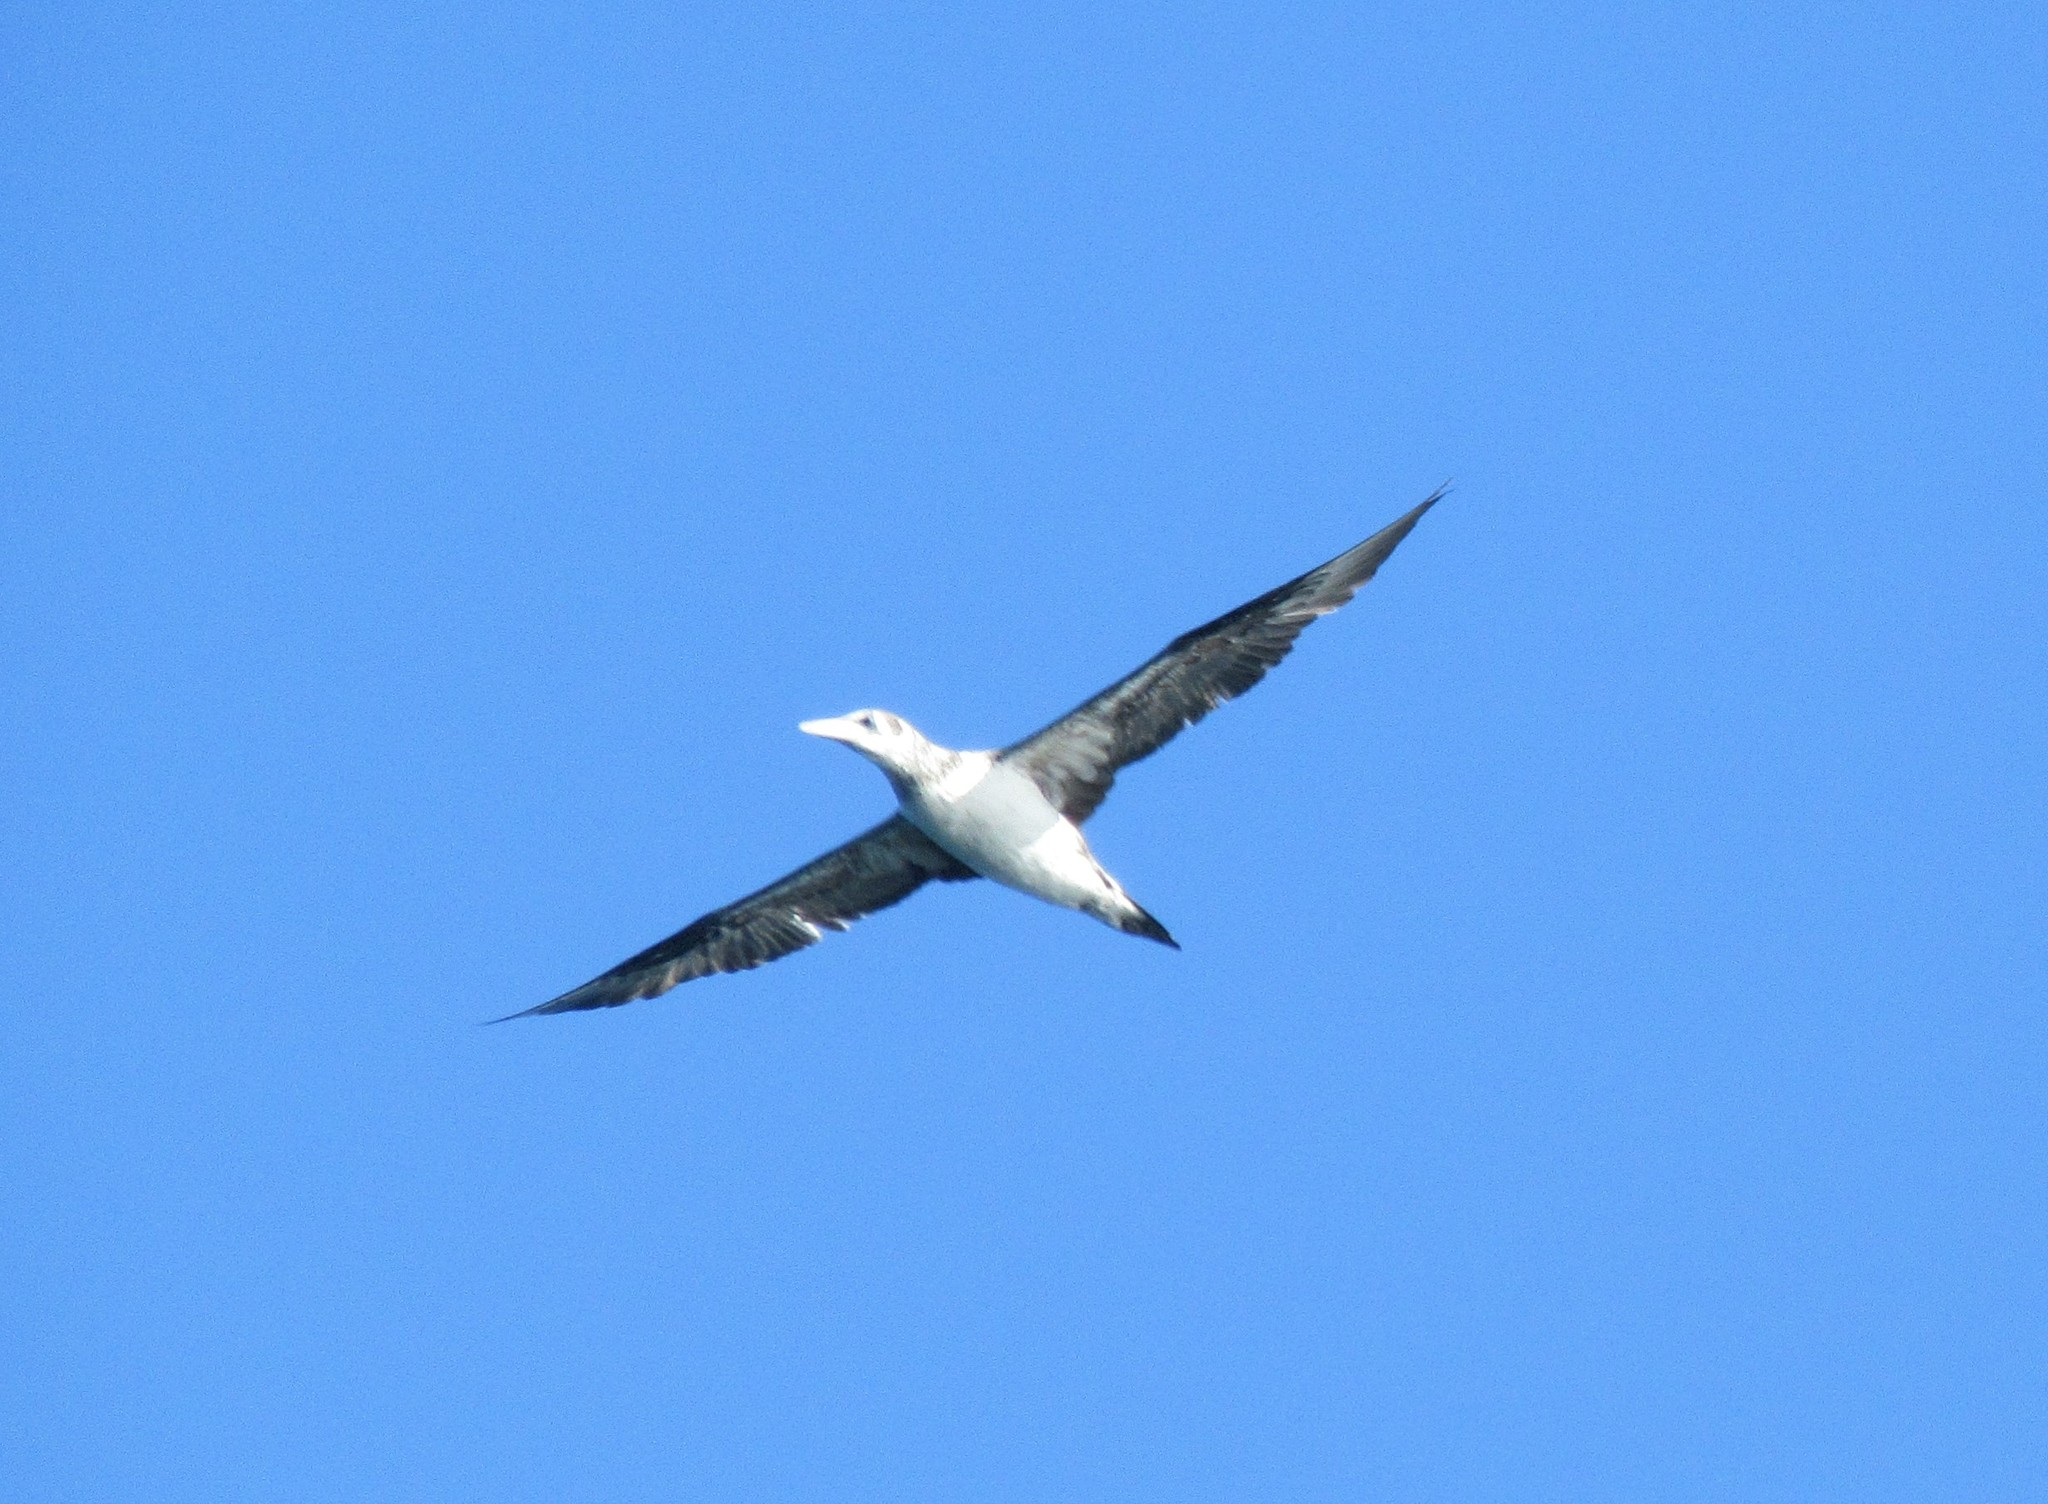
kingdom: Animalia
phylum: Chordata
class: Aves
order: Suliformes
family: Sulidae
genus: Morus
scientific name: Morus bassanus
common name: Northern gannet
